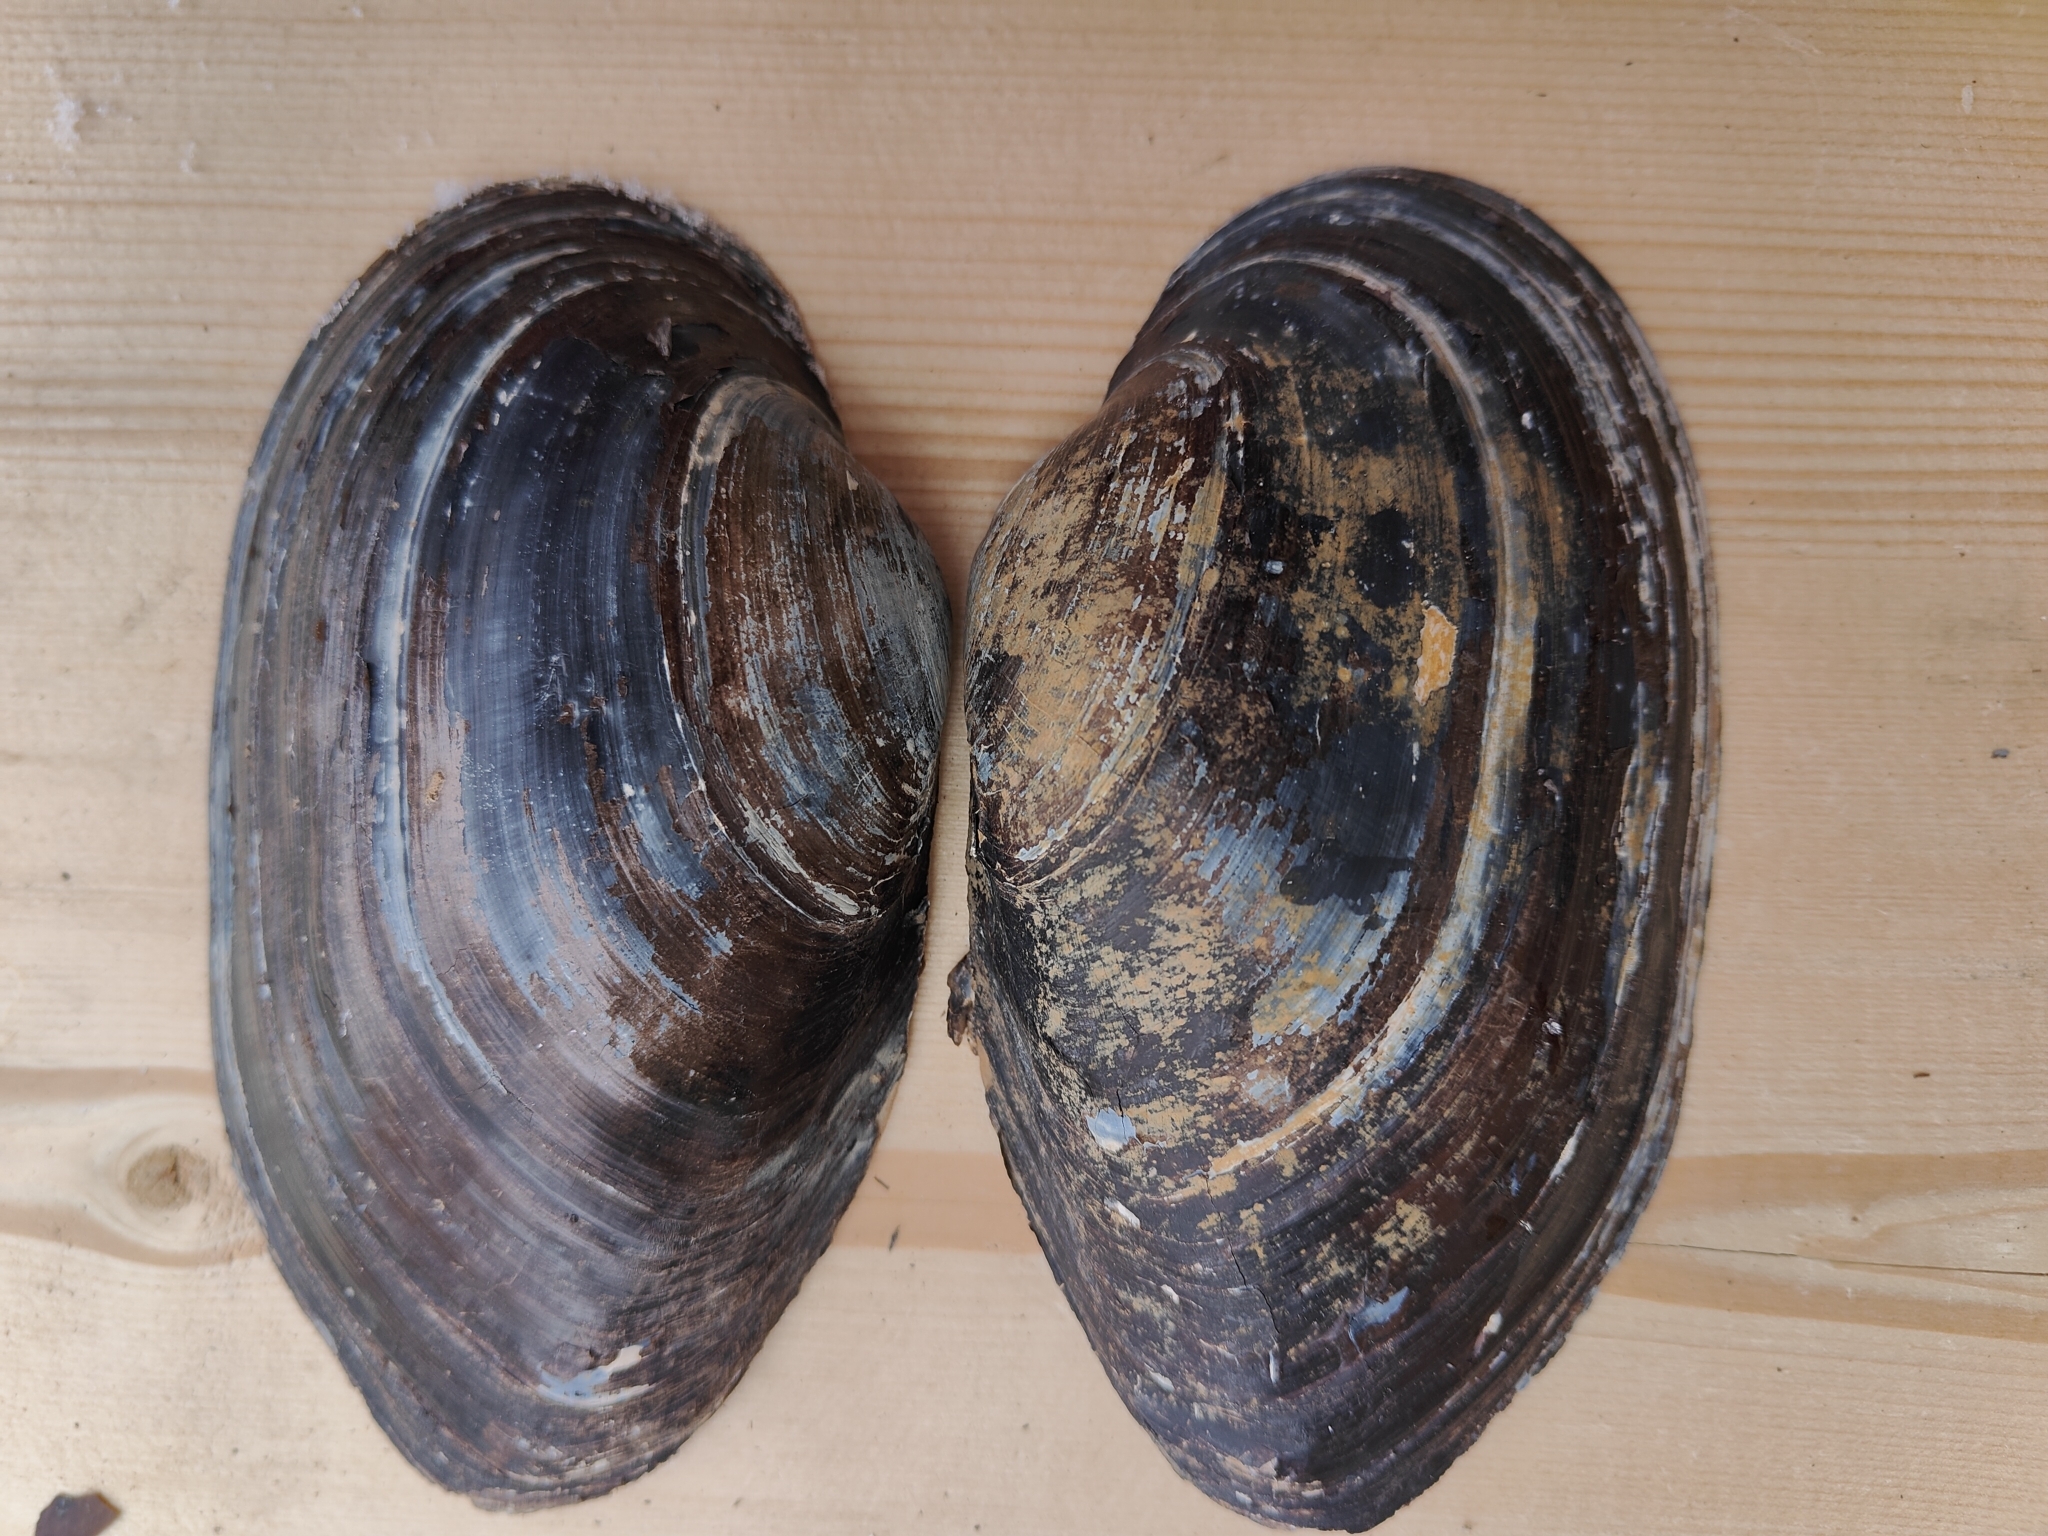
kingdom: Animalia
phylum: Mollusca
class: Bivalvia
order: Unionida
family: Unionidae
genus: Pyganodon
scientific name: Pyganodon grandis
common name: Giant floater
